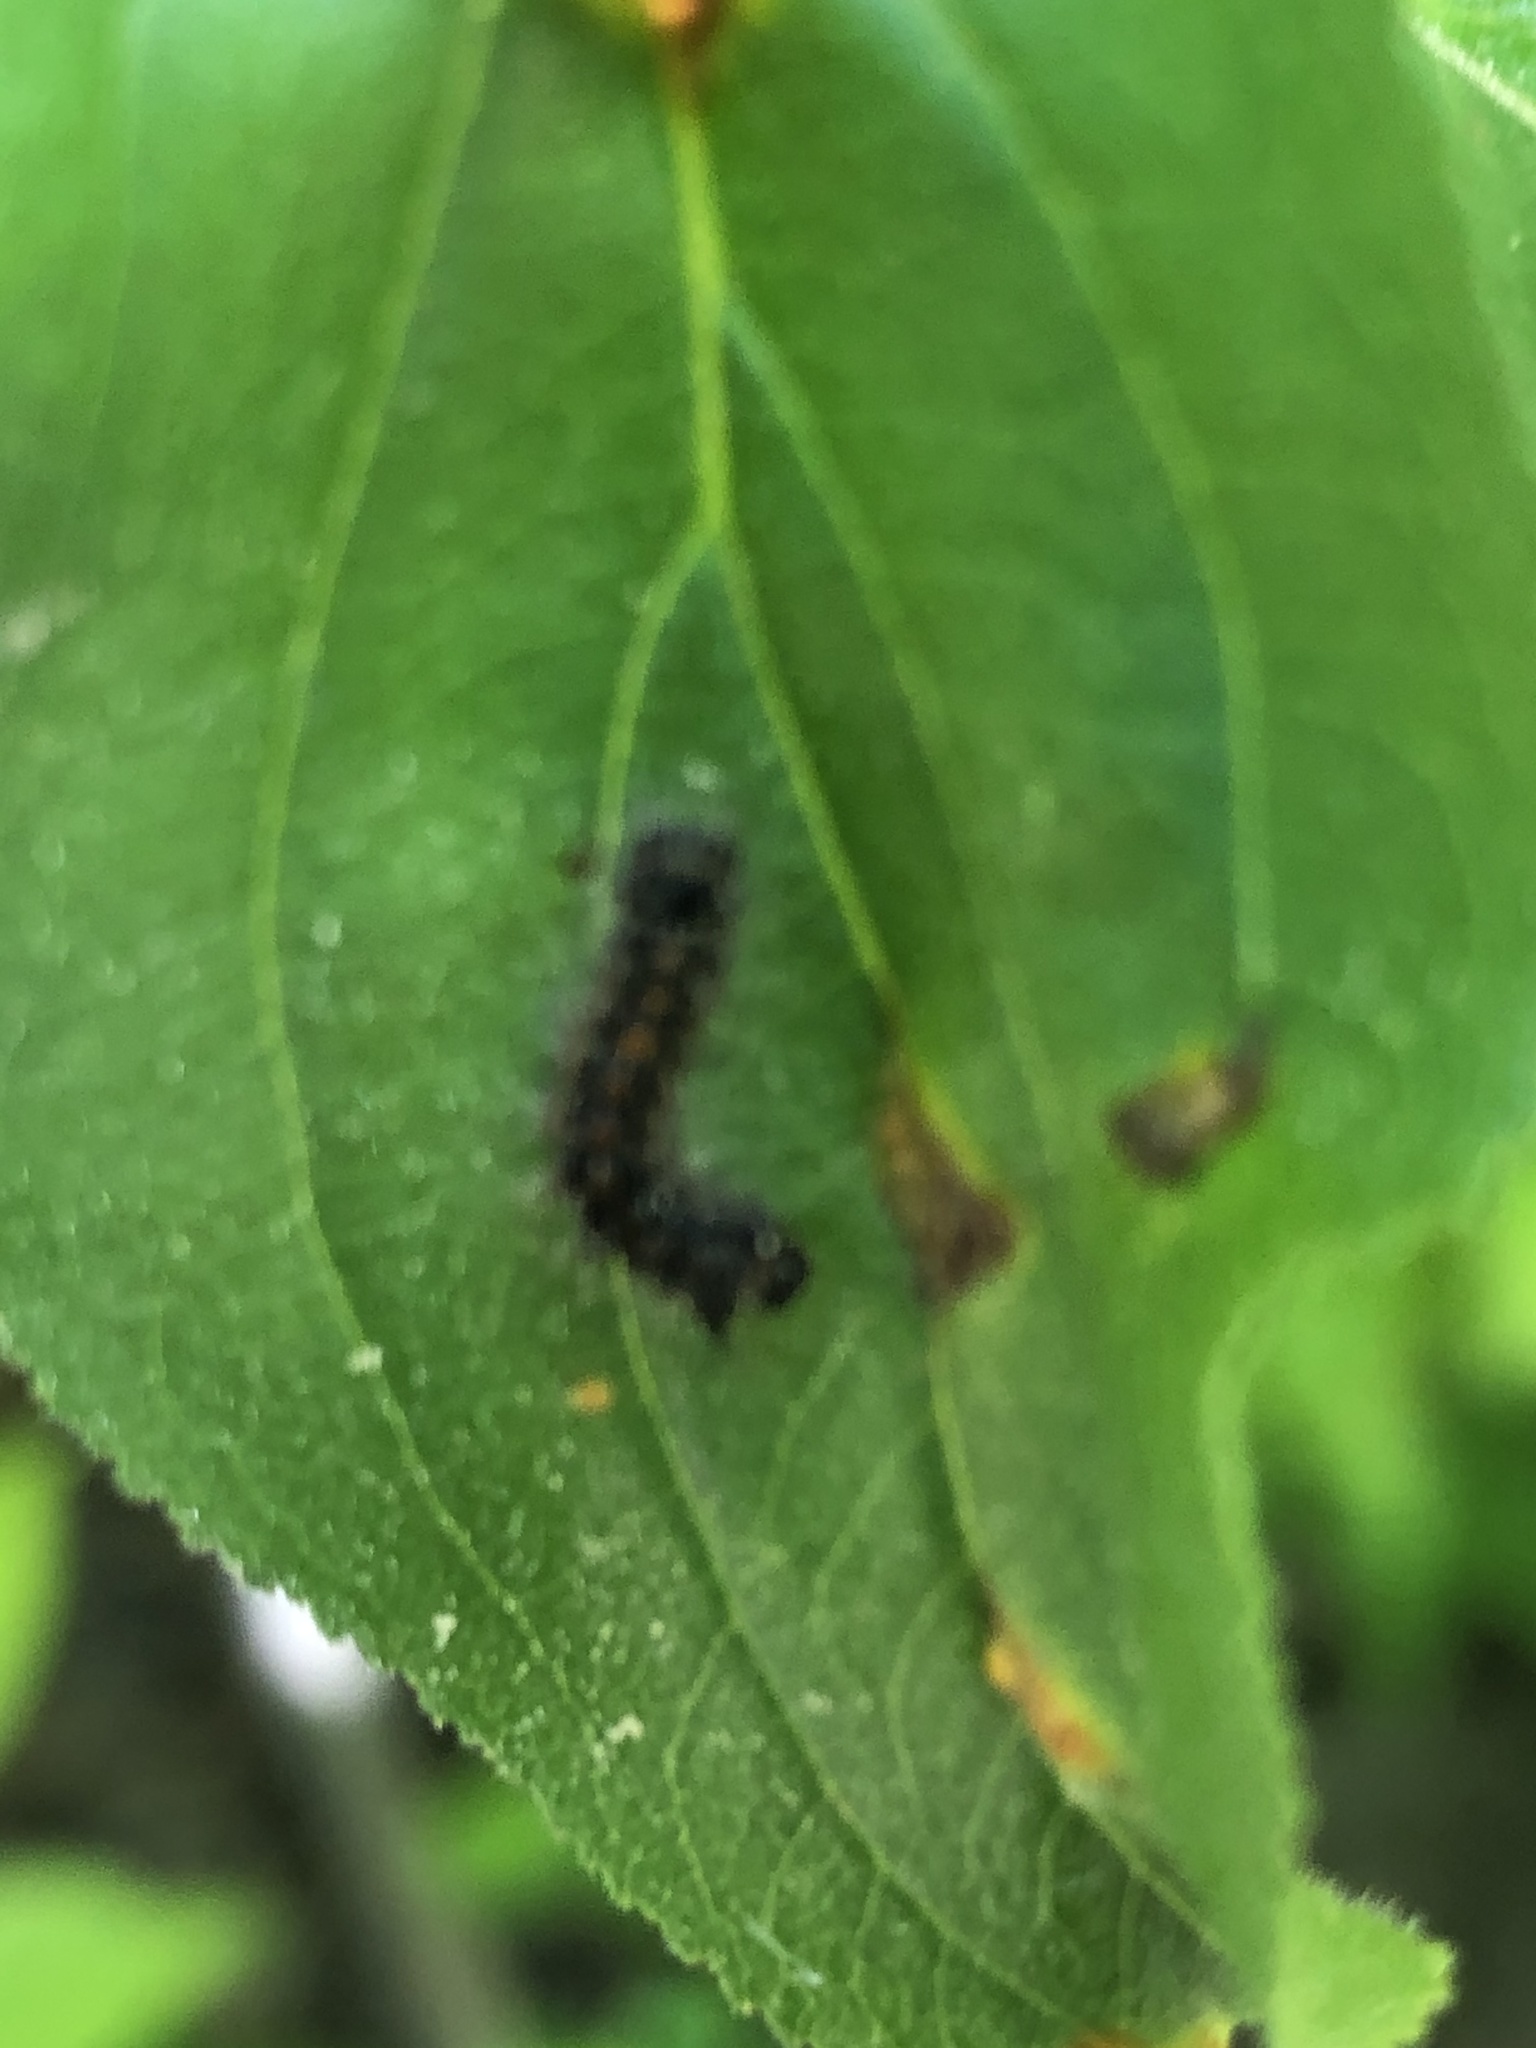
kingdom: Animalia
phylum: Arthropoda
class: Insecta
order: Lepidoptera
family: Erebidae
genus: Lymantria
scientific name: Lymantria dispar
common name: Gypsy moth
